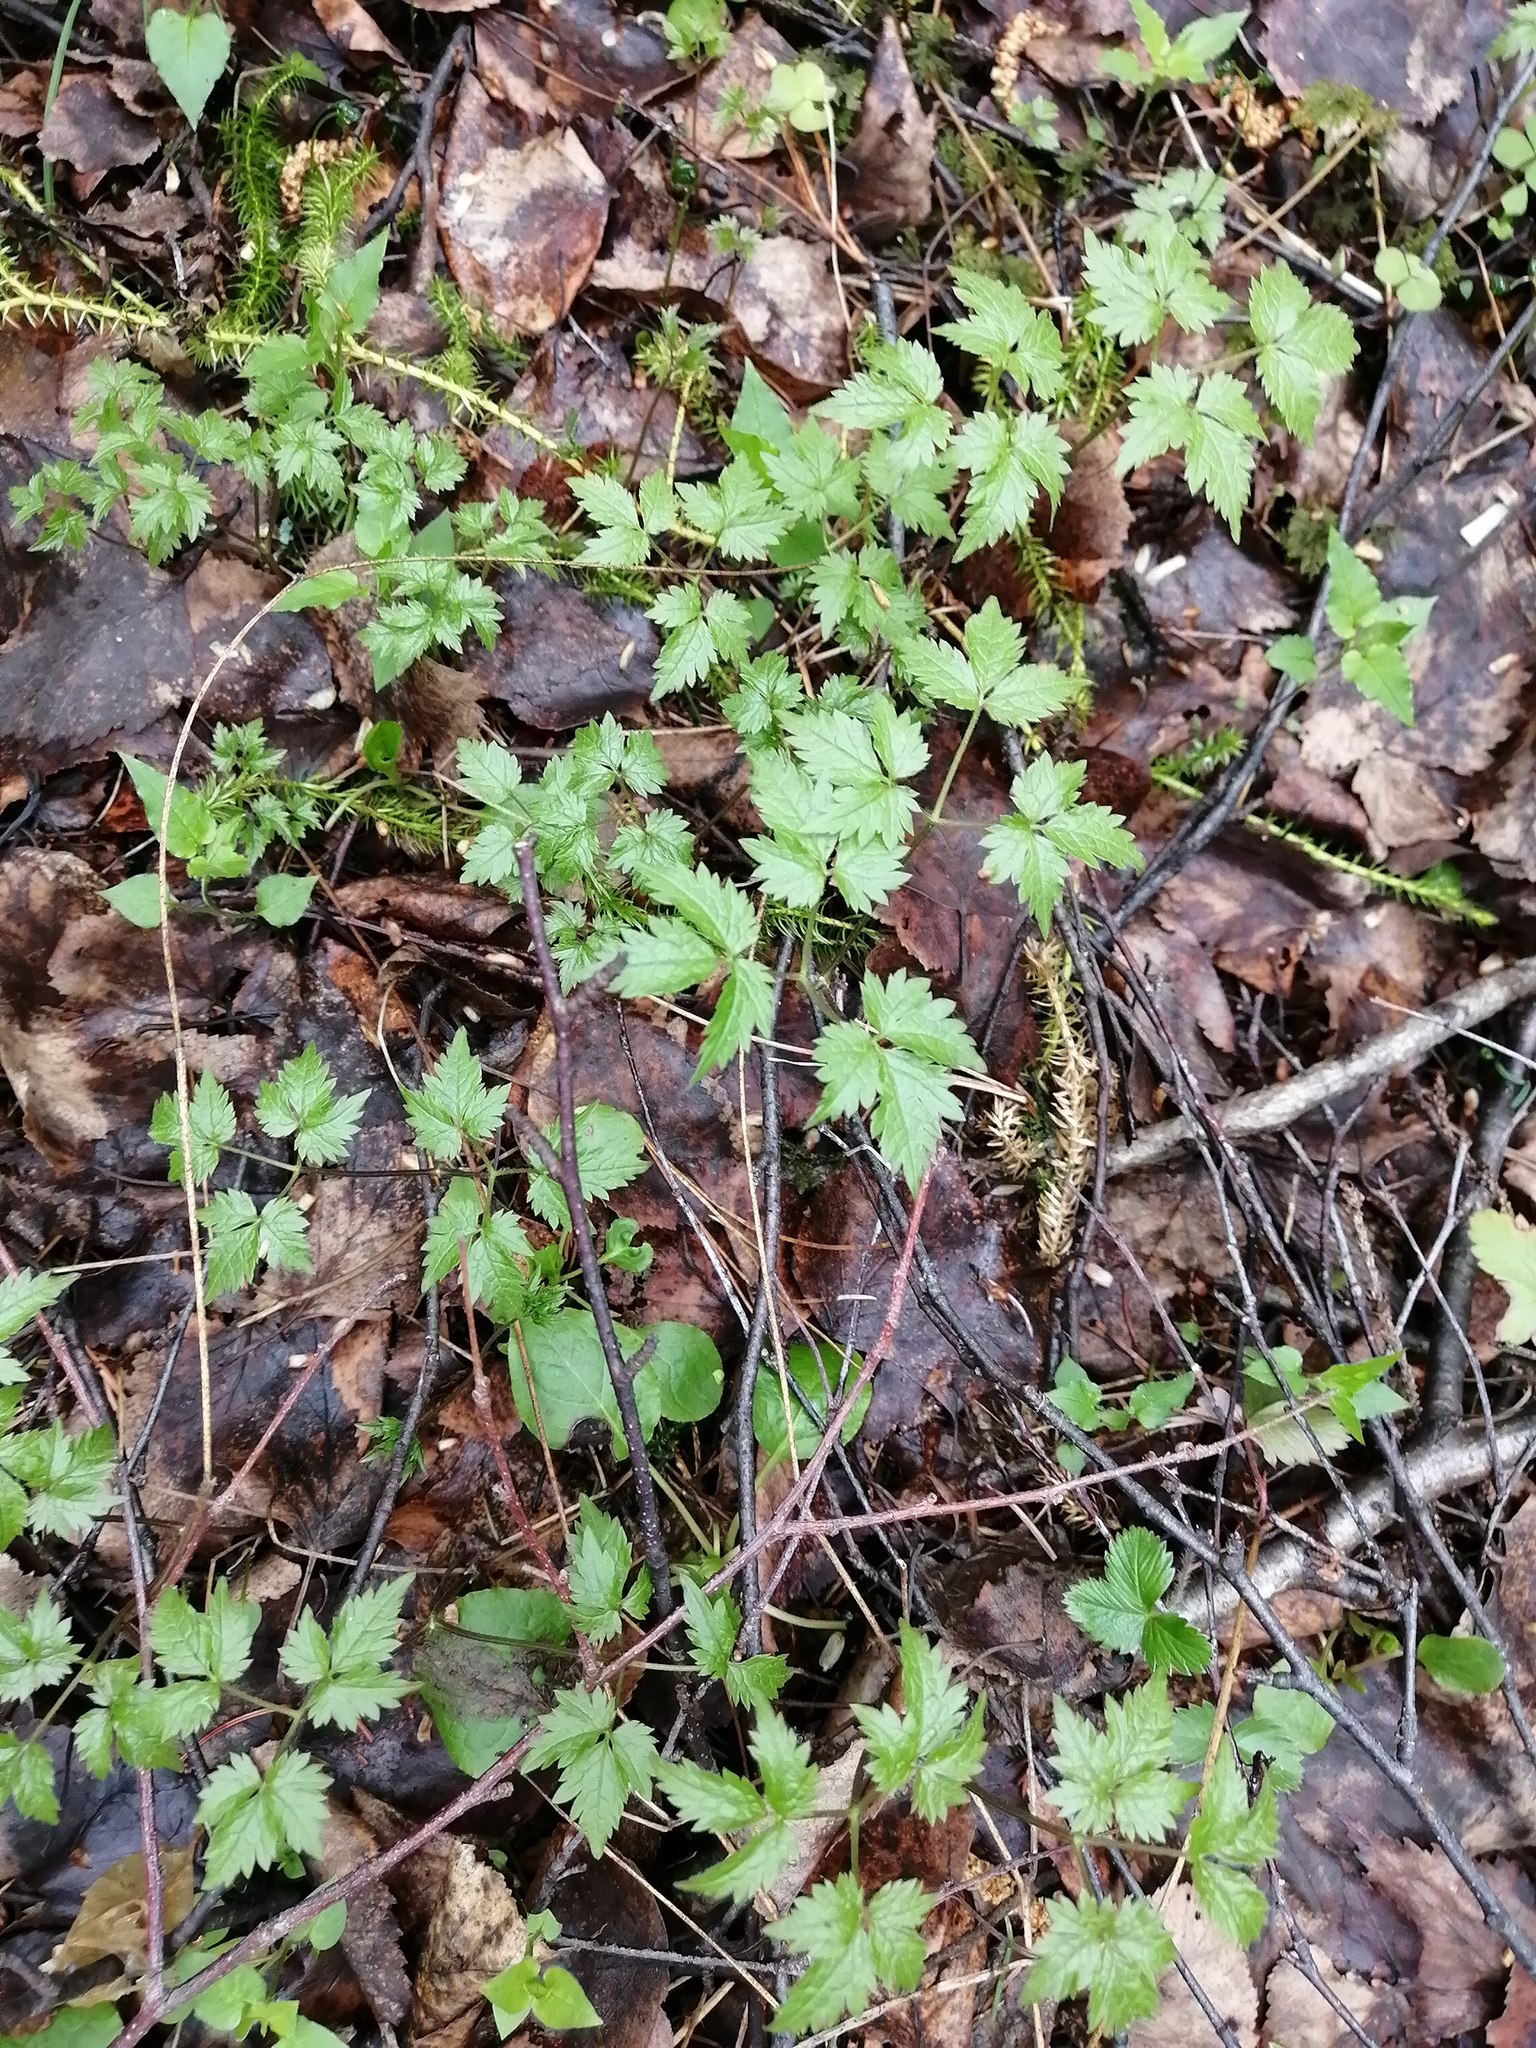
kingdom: Plantae
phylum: Tracheophyta
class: Magnoliopsida
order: Ranunculales
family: Ranunculaceae
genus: Clematis
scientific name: Clematis sibirica
